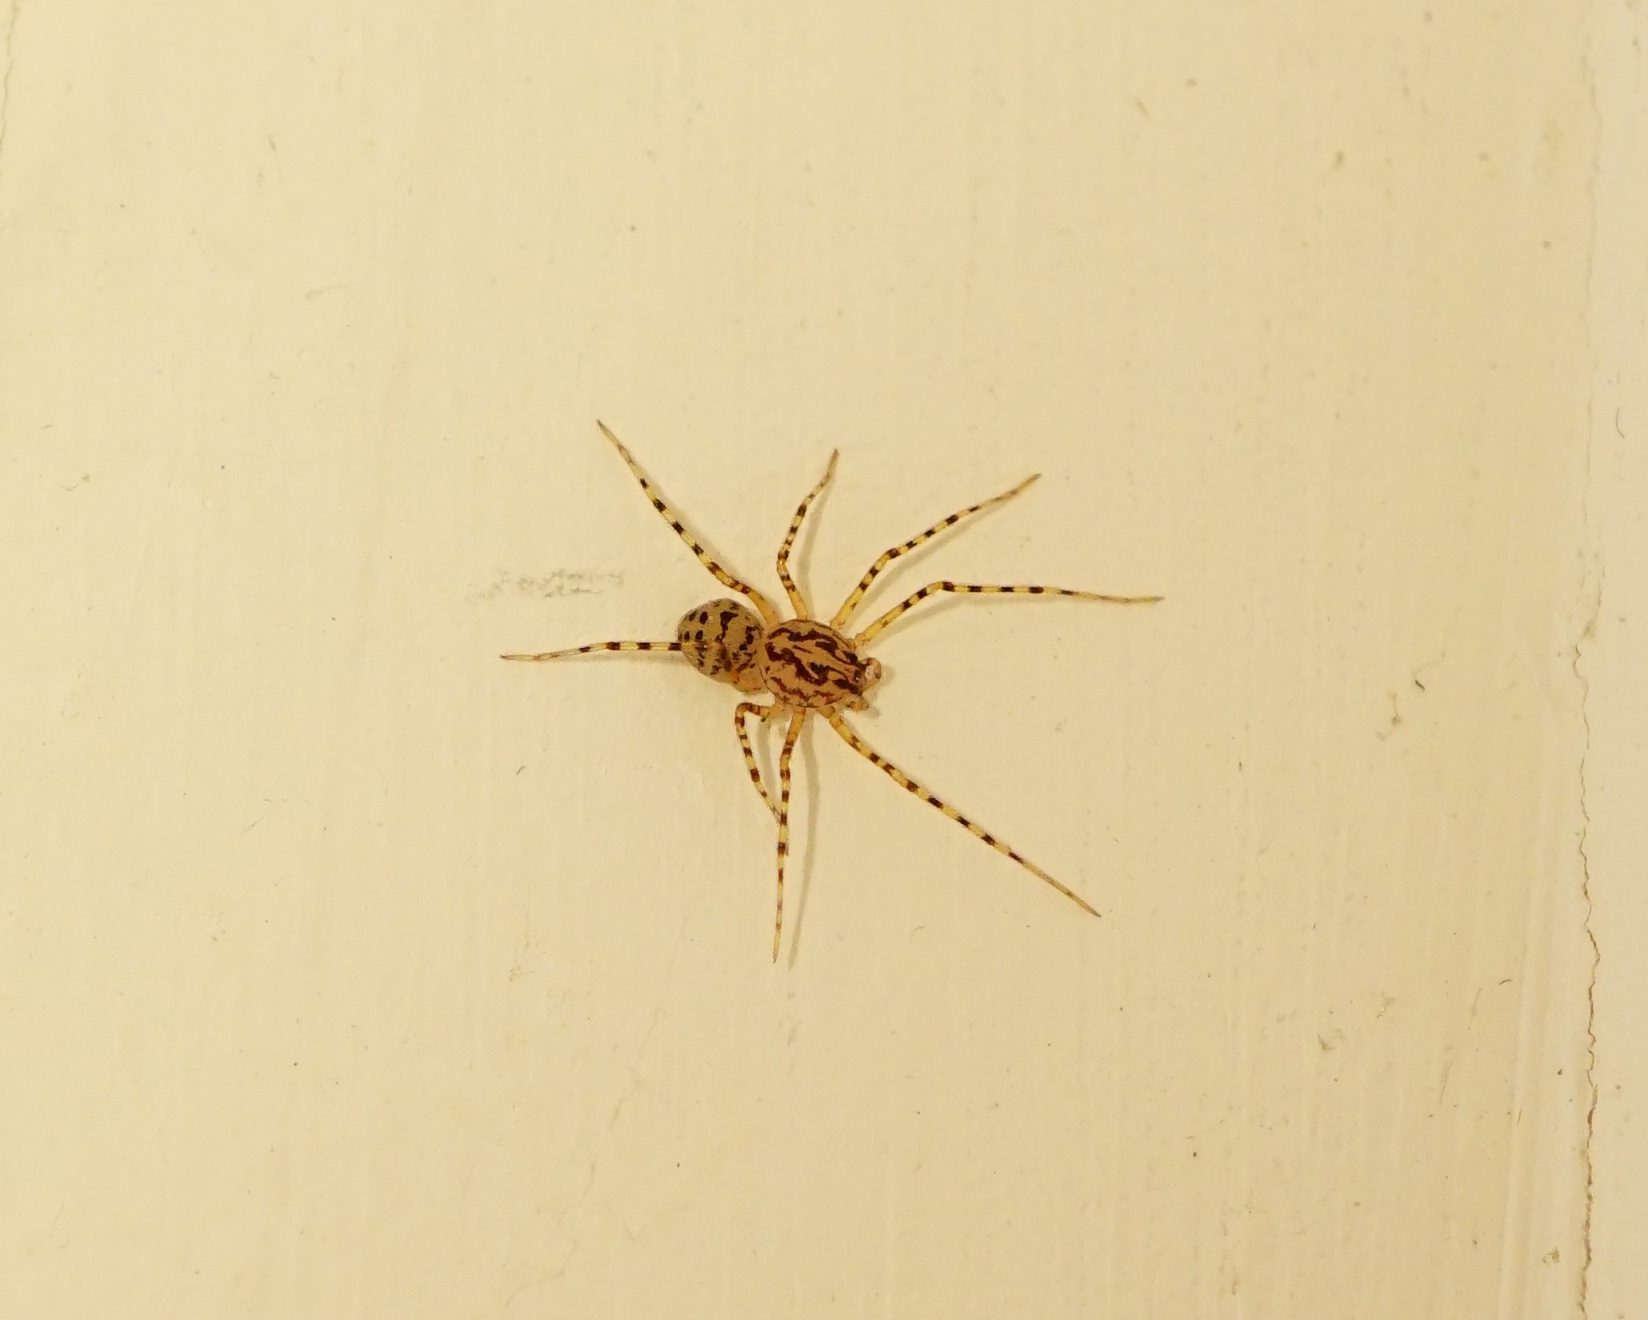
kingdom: Animalia
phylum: Arthropoda
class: Arachnida
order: Araneae
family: Scytodidae
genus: Scytodes
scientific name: Scytodes thoracica
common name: Spitting spider
